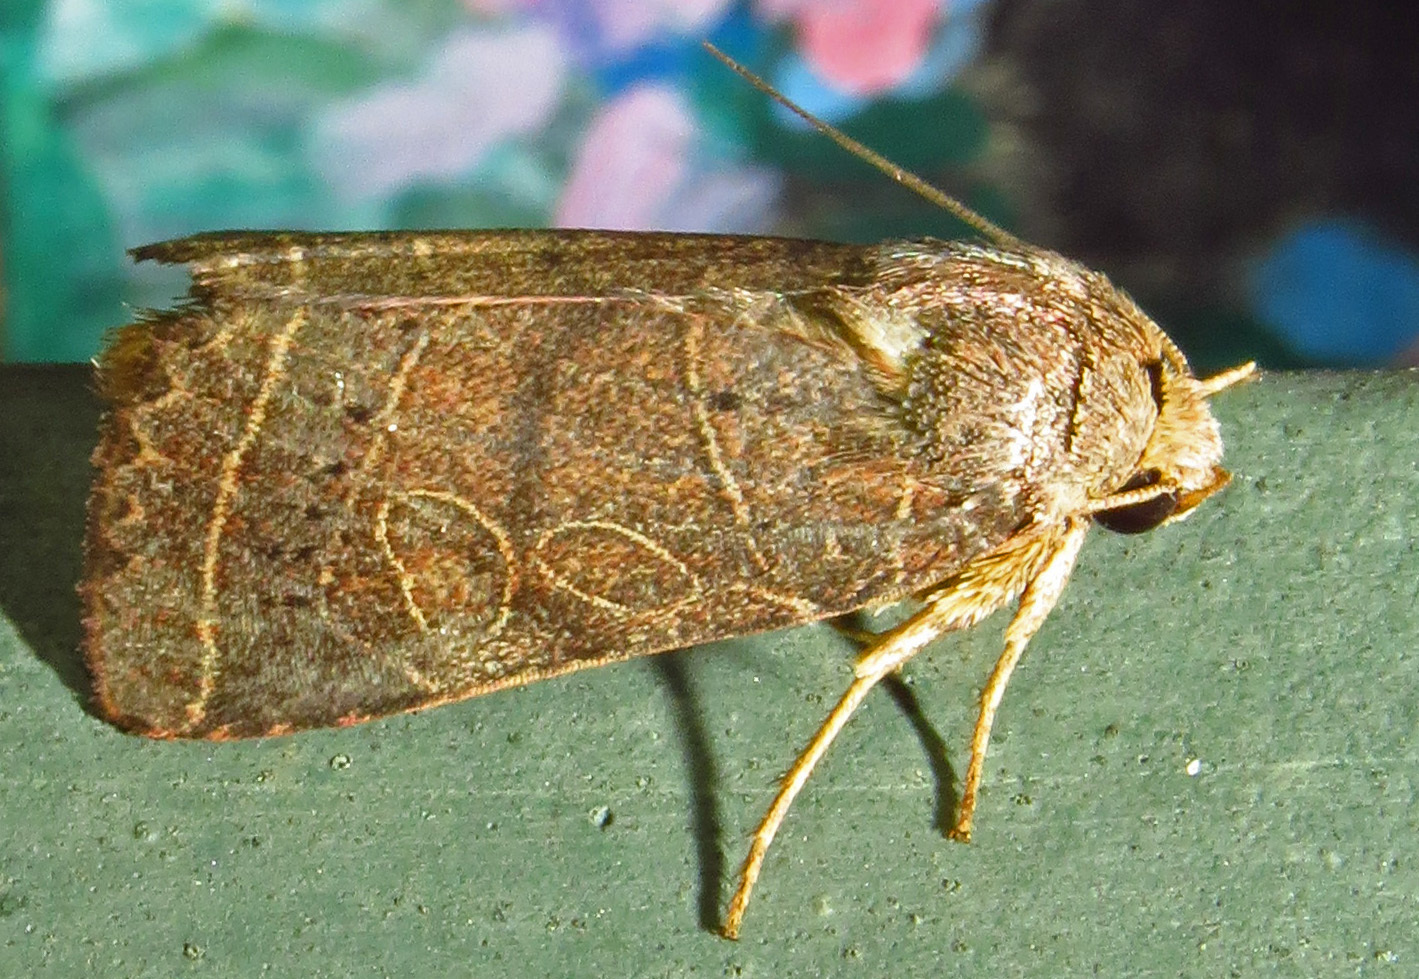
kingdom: Animalia
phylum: Arthropoda
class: Insecta
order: Lepidoptera
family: Noctuidae
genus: Orthodes
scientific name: Orthodes majuscula
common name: Rustic quaker
